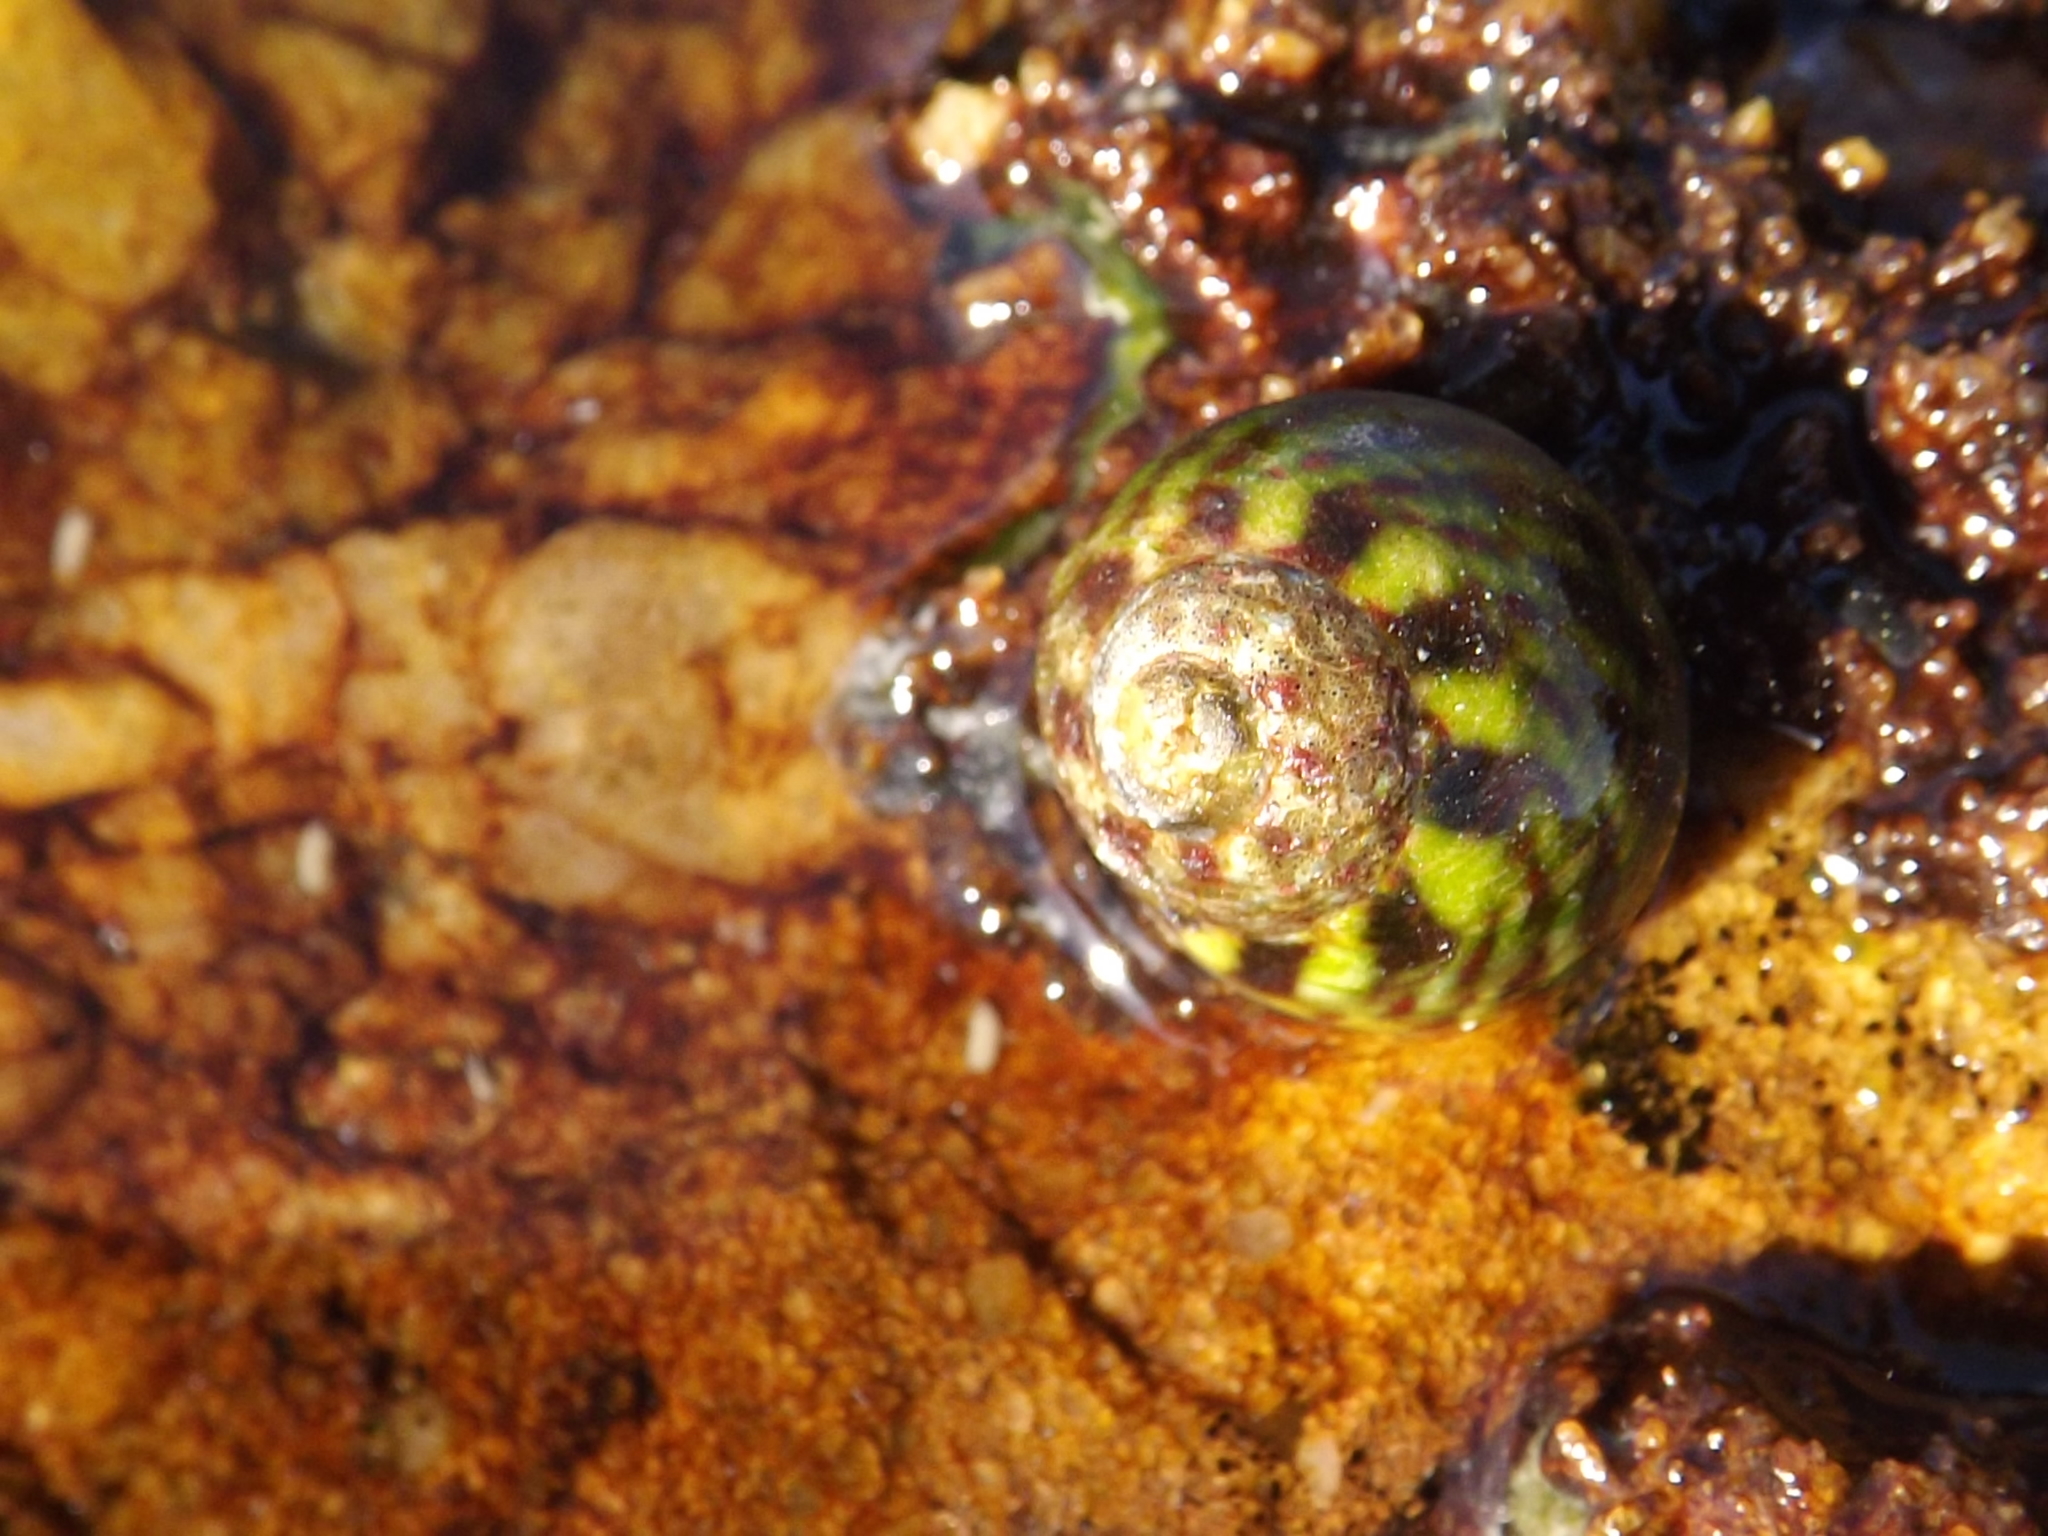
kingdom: Animalia
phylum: Mollusca
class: Gastropoda
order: Trochida
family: Trochidae
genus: Oxystele
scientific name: Oxystele antoni
